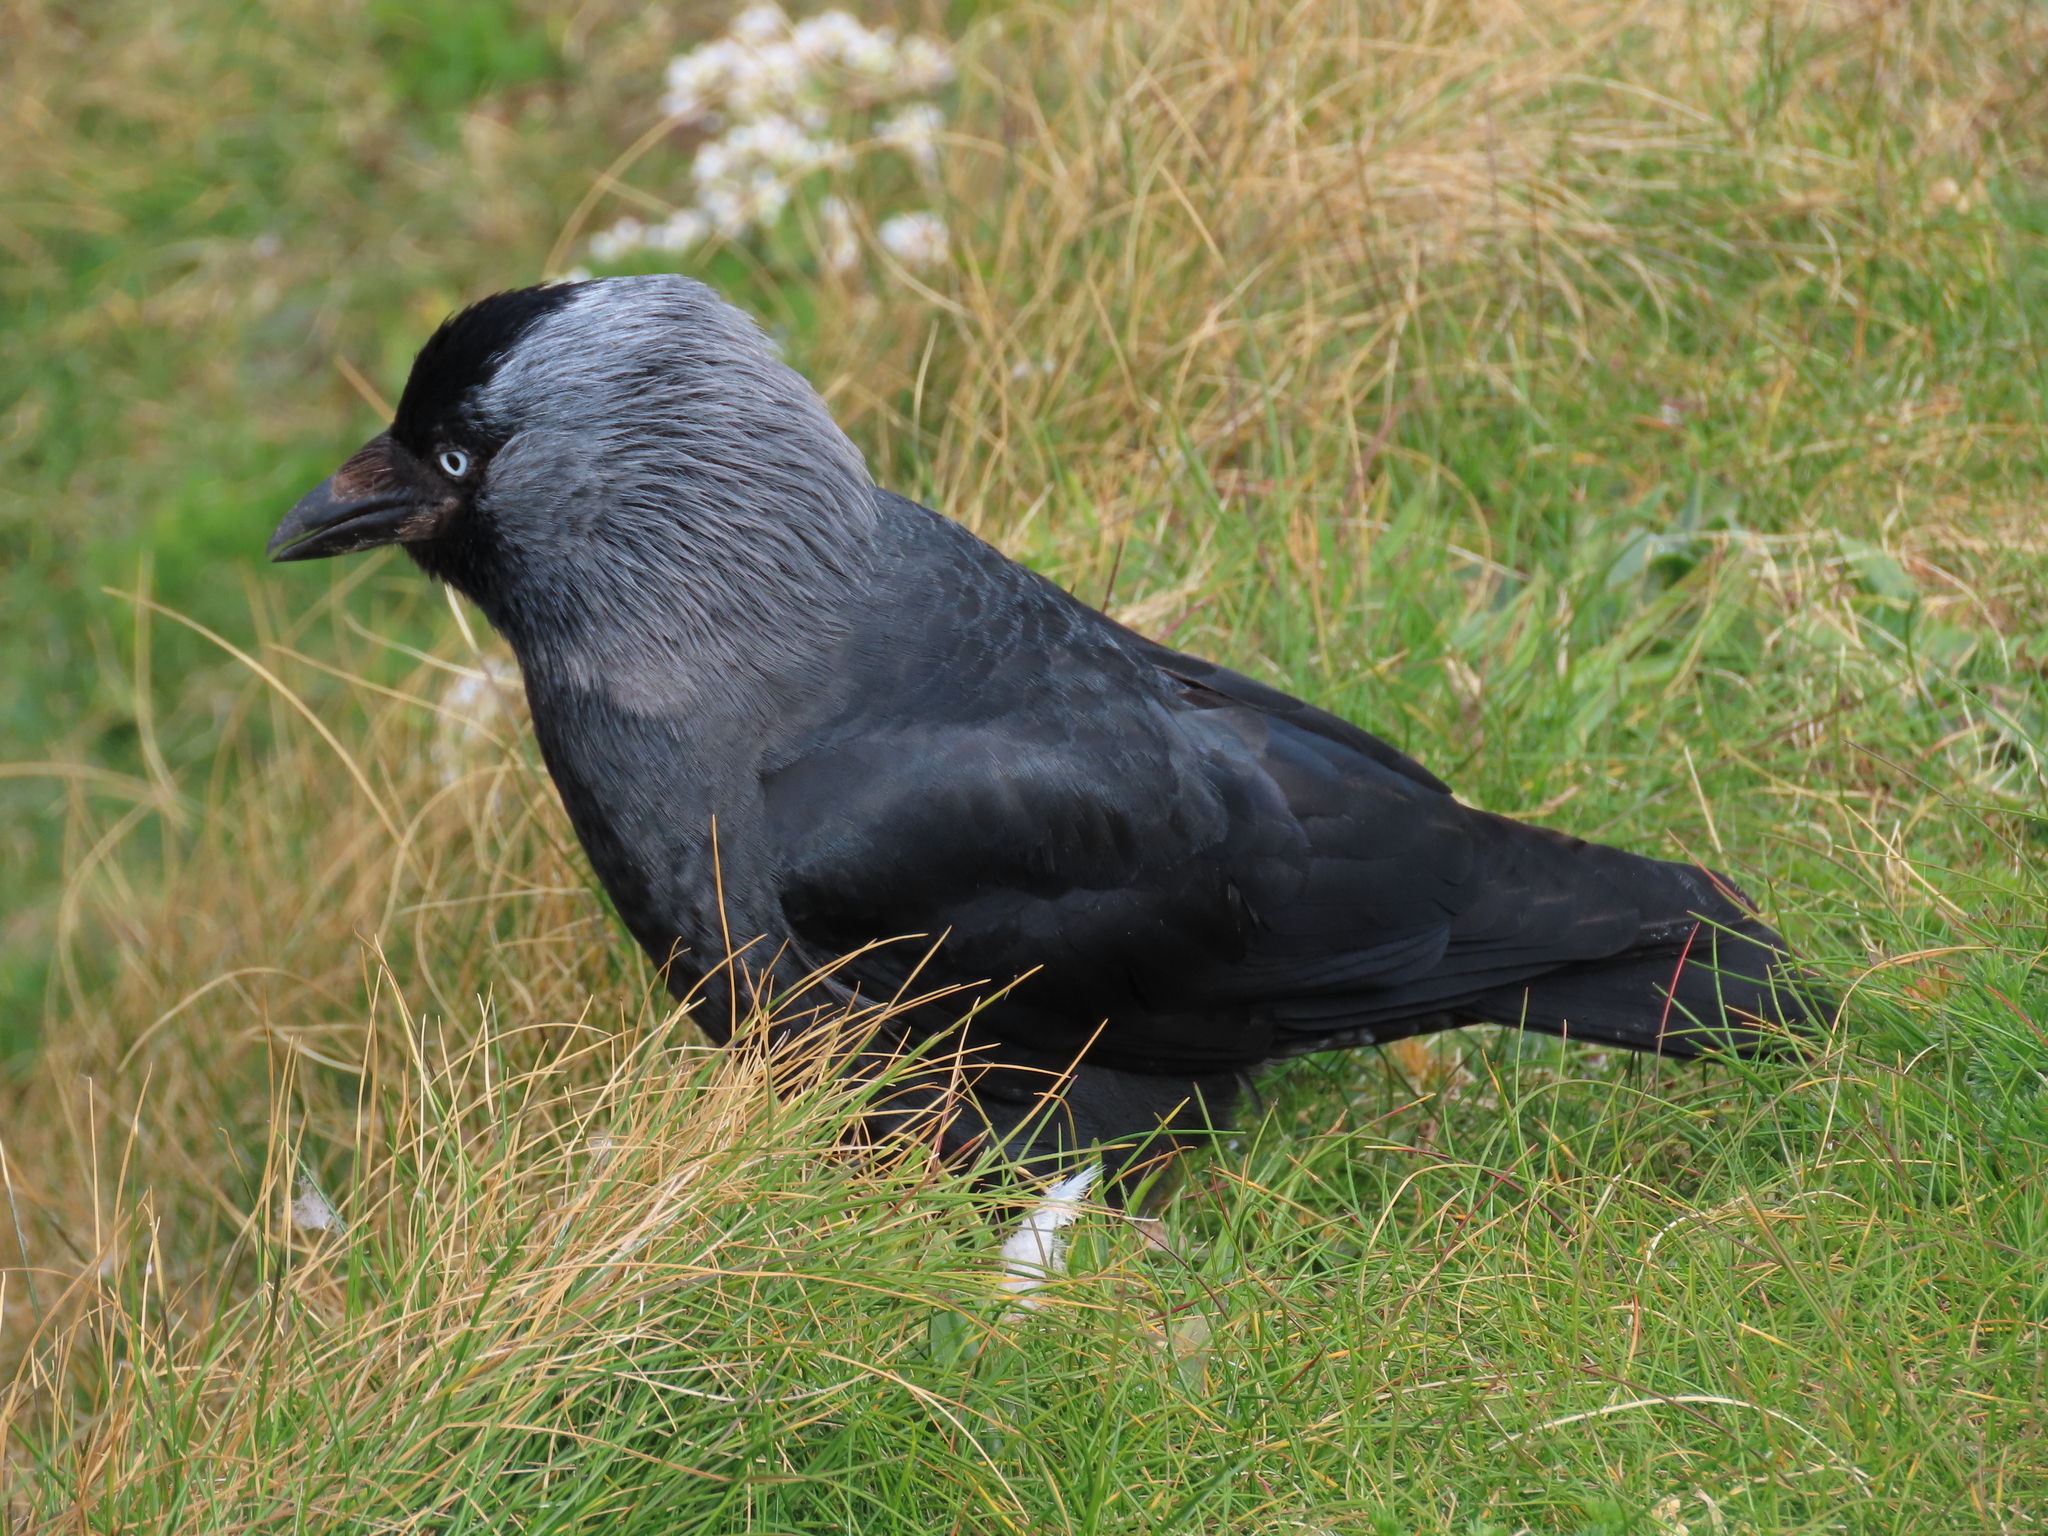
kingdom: Animalia
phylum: Chordata
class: Aves
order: Passeriformes
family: Corvidae
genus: Coloeus
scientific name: Coloeus monedula
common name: Western jackdaw
